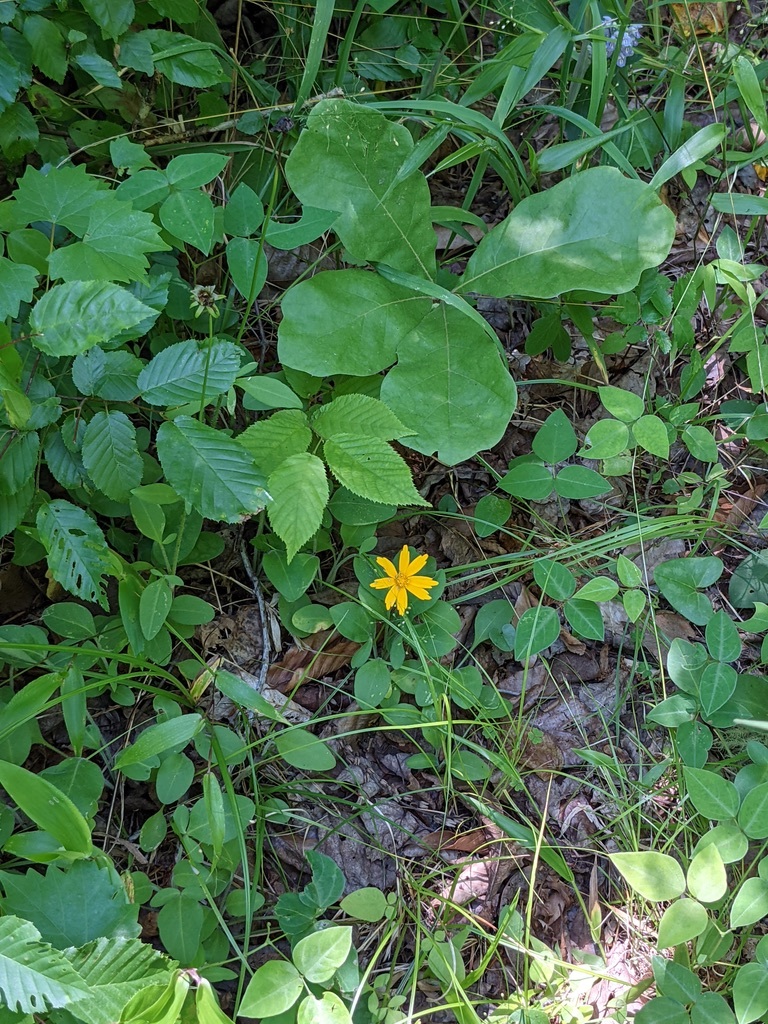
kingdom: Plantae
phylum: Tracheophyta
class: Magnoliopsida
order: Asterales
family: Asteraceae
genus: Coreopsis
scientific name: Coreopsis auriculata
